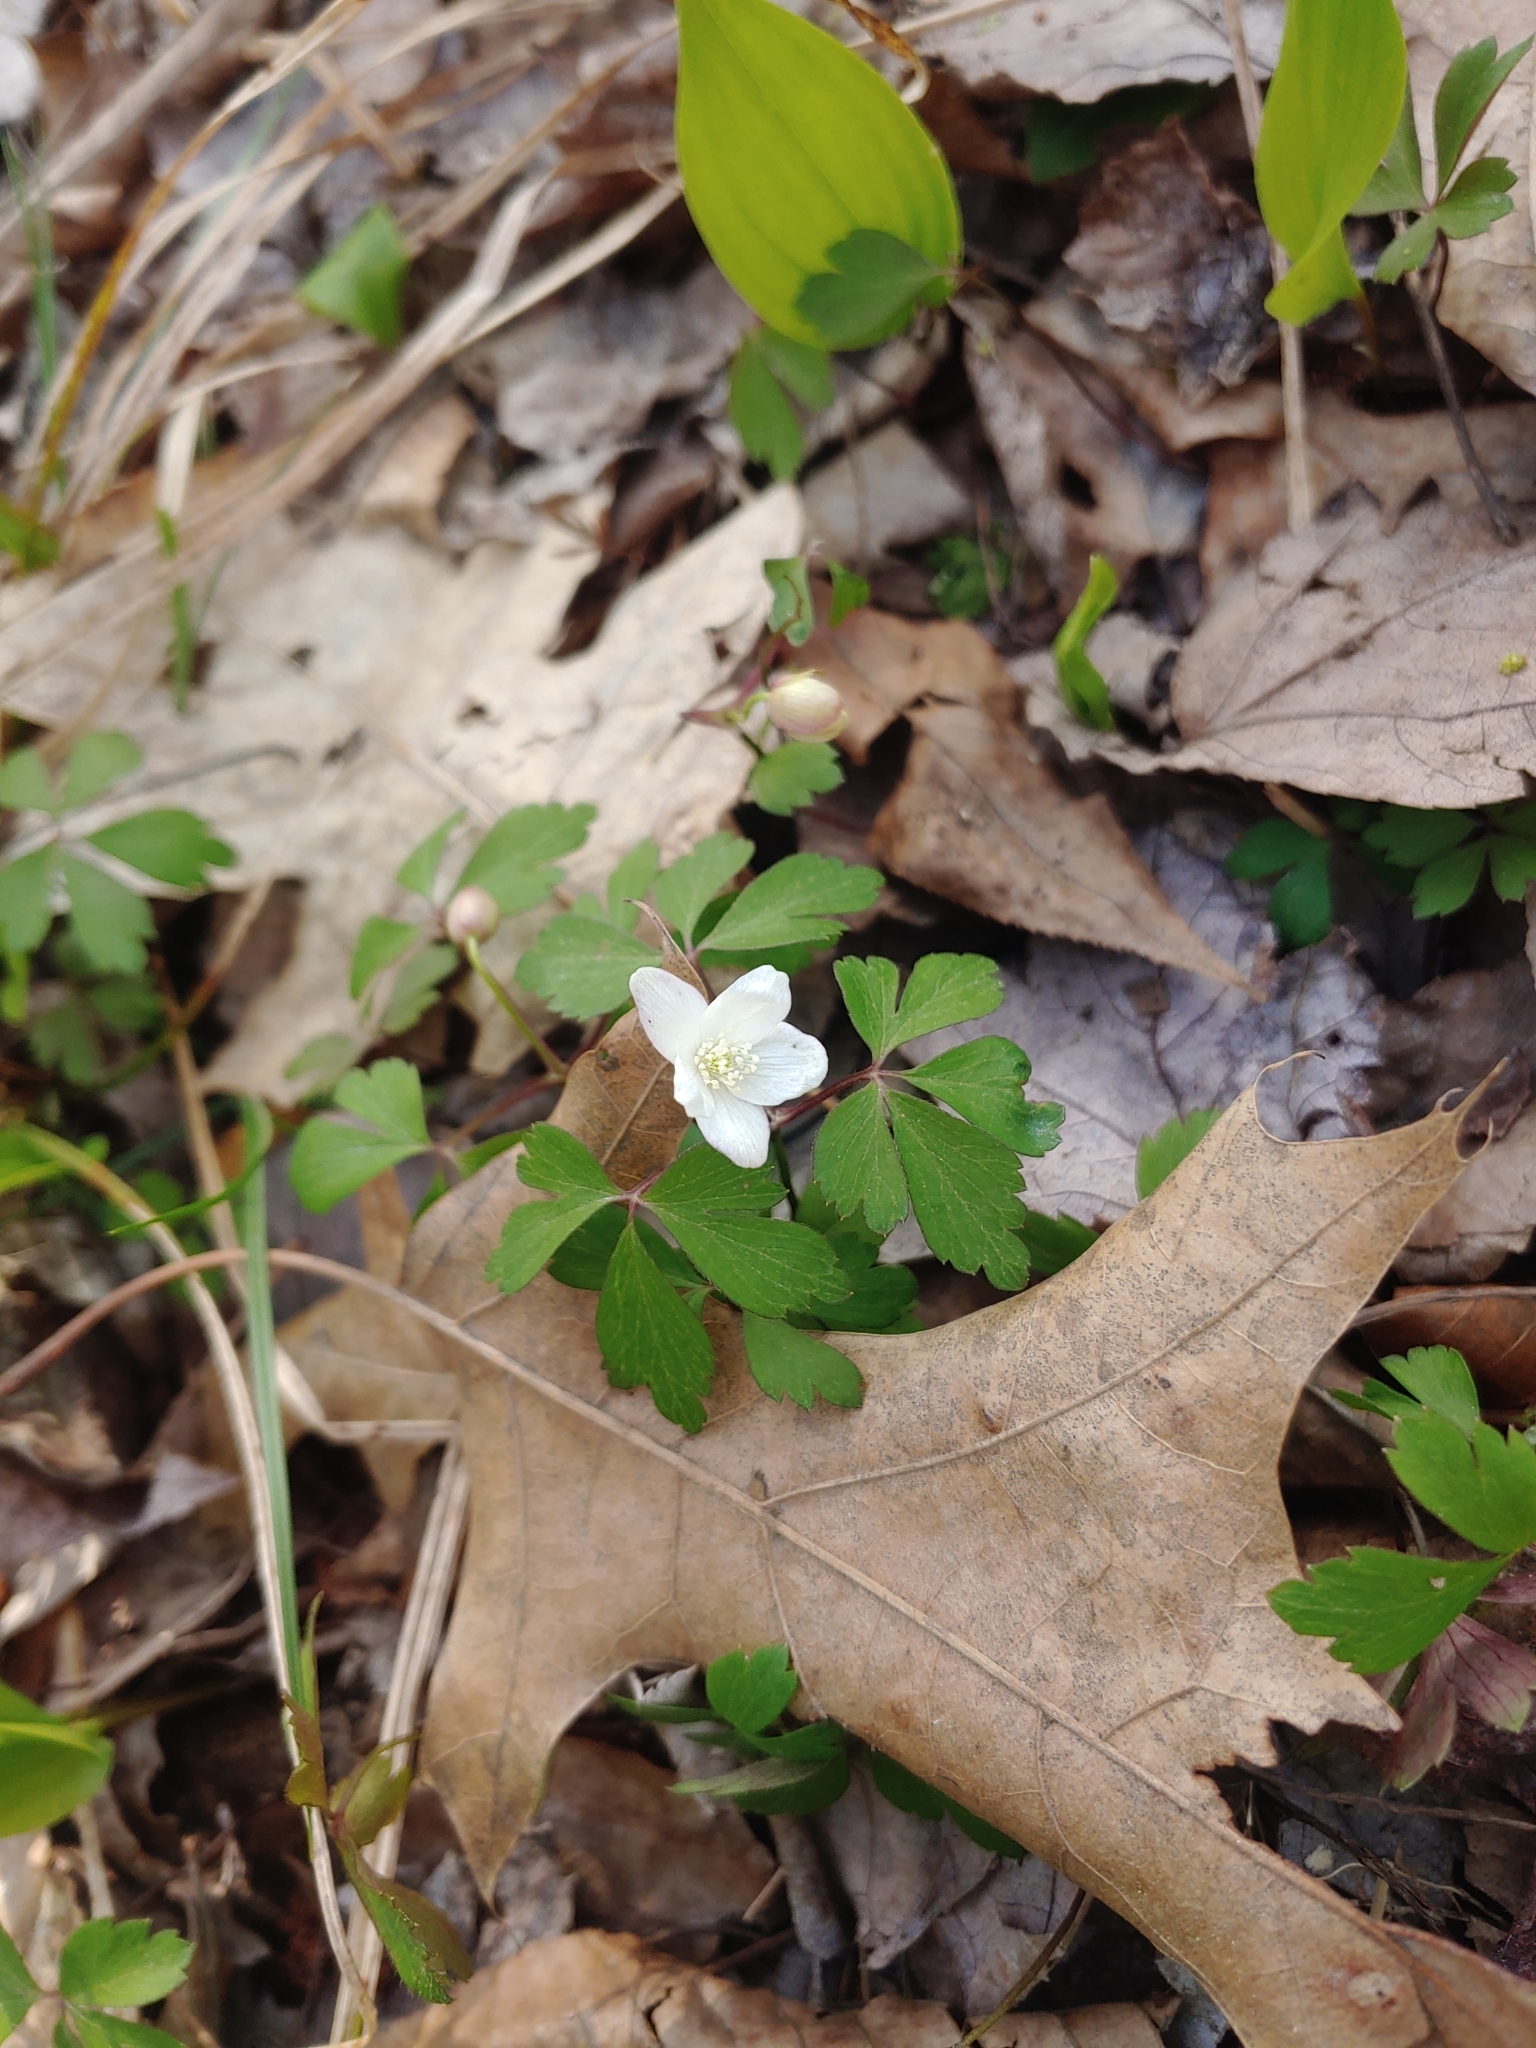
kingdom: Plantae
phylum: Tracheophyta
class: Magnoliopsida
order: Ranunculales
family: Ranunculaceae
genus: Anemone
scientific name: Anemone quinquefolia
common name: Wood anemone
